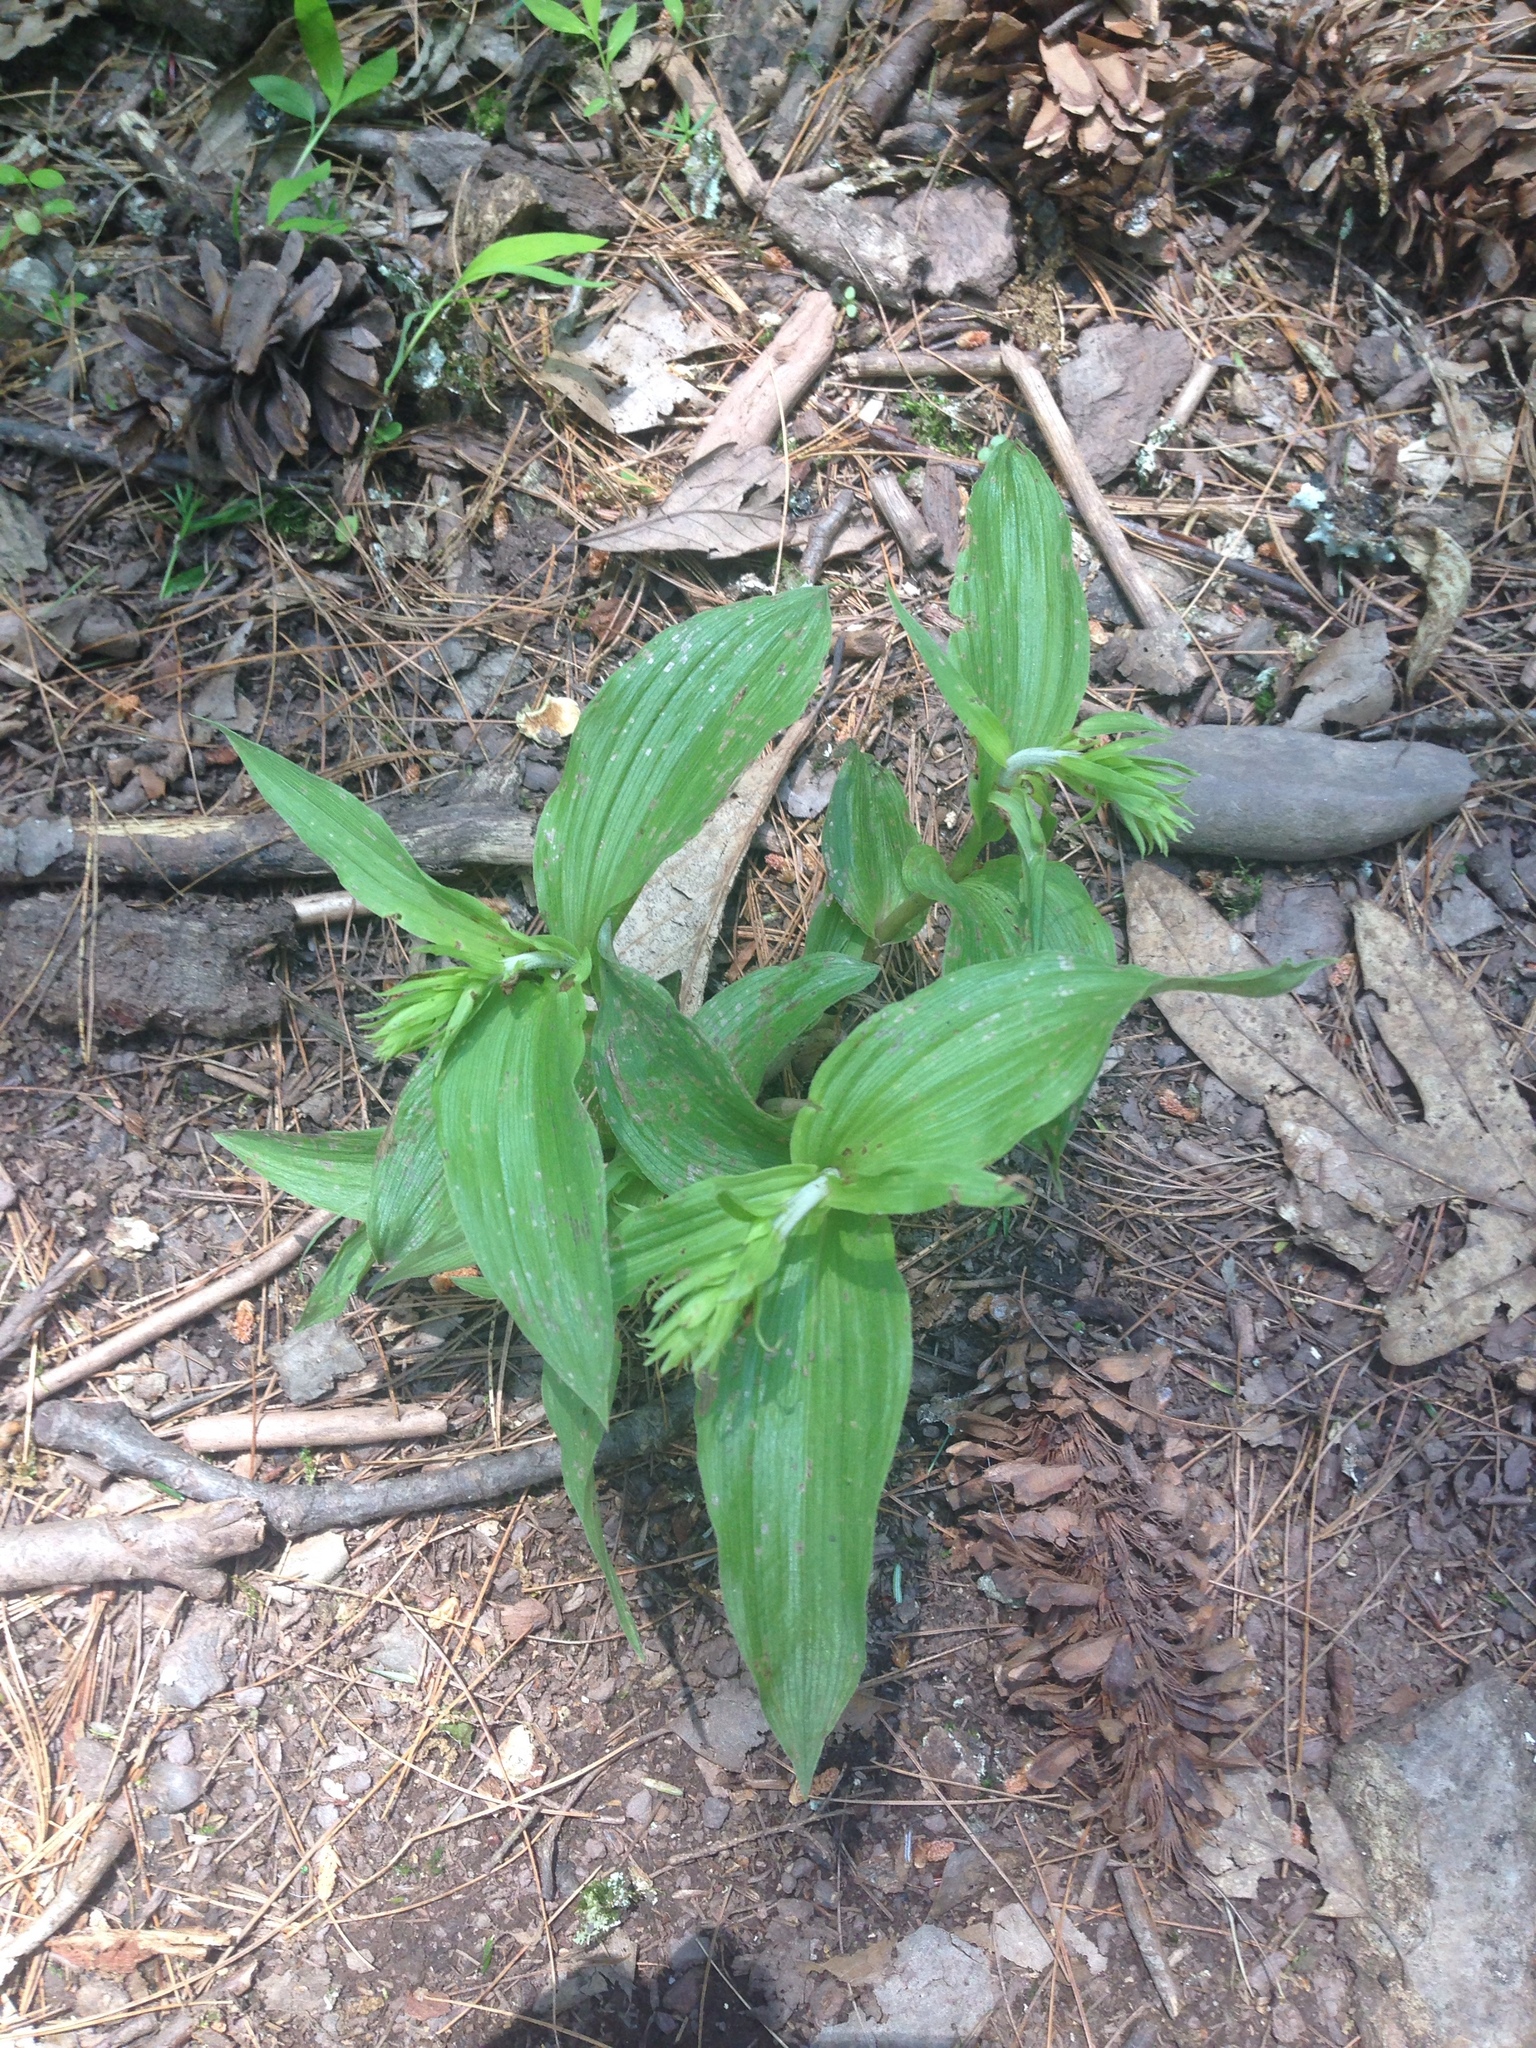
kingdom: Plantae
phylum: Tracheophyta
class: Liliopsida
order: Asparagales
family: Orchidaceae
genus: Epipactis
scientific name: Epipactis helleborine
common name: Broad-leaved helleborine
